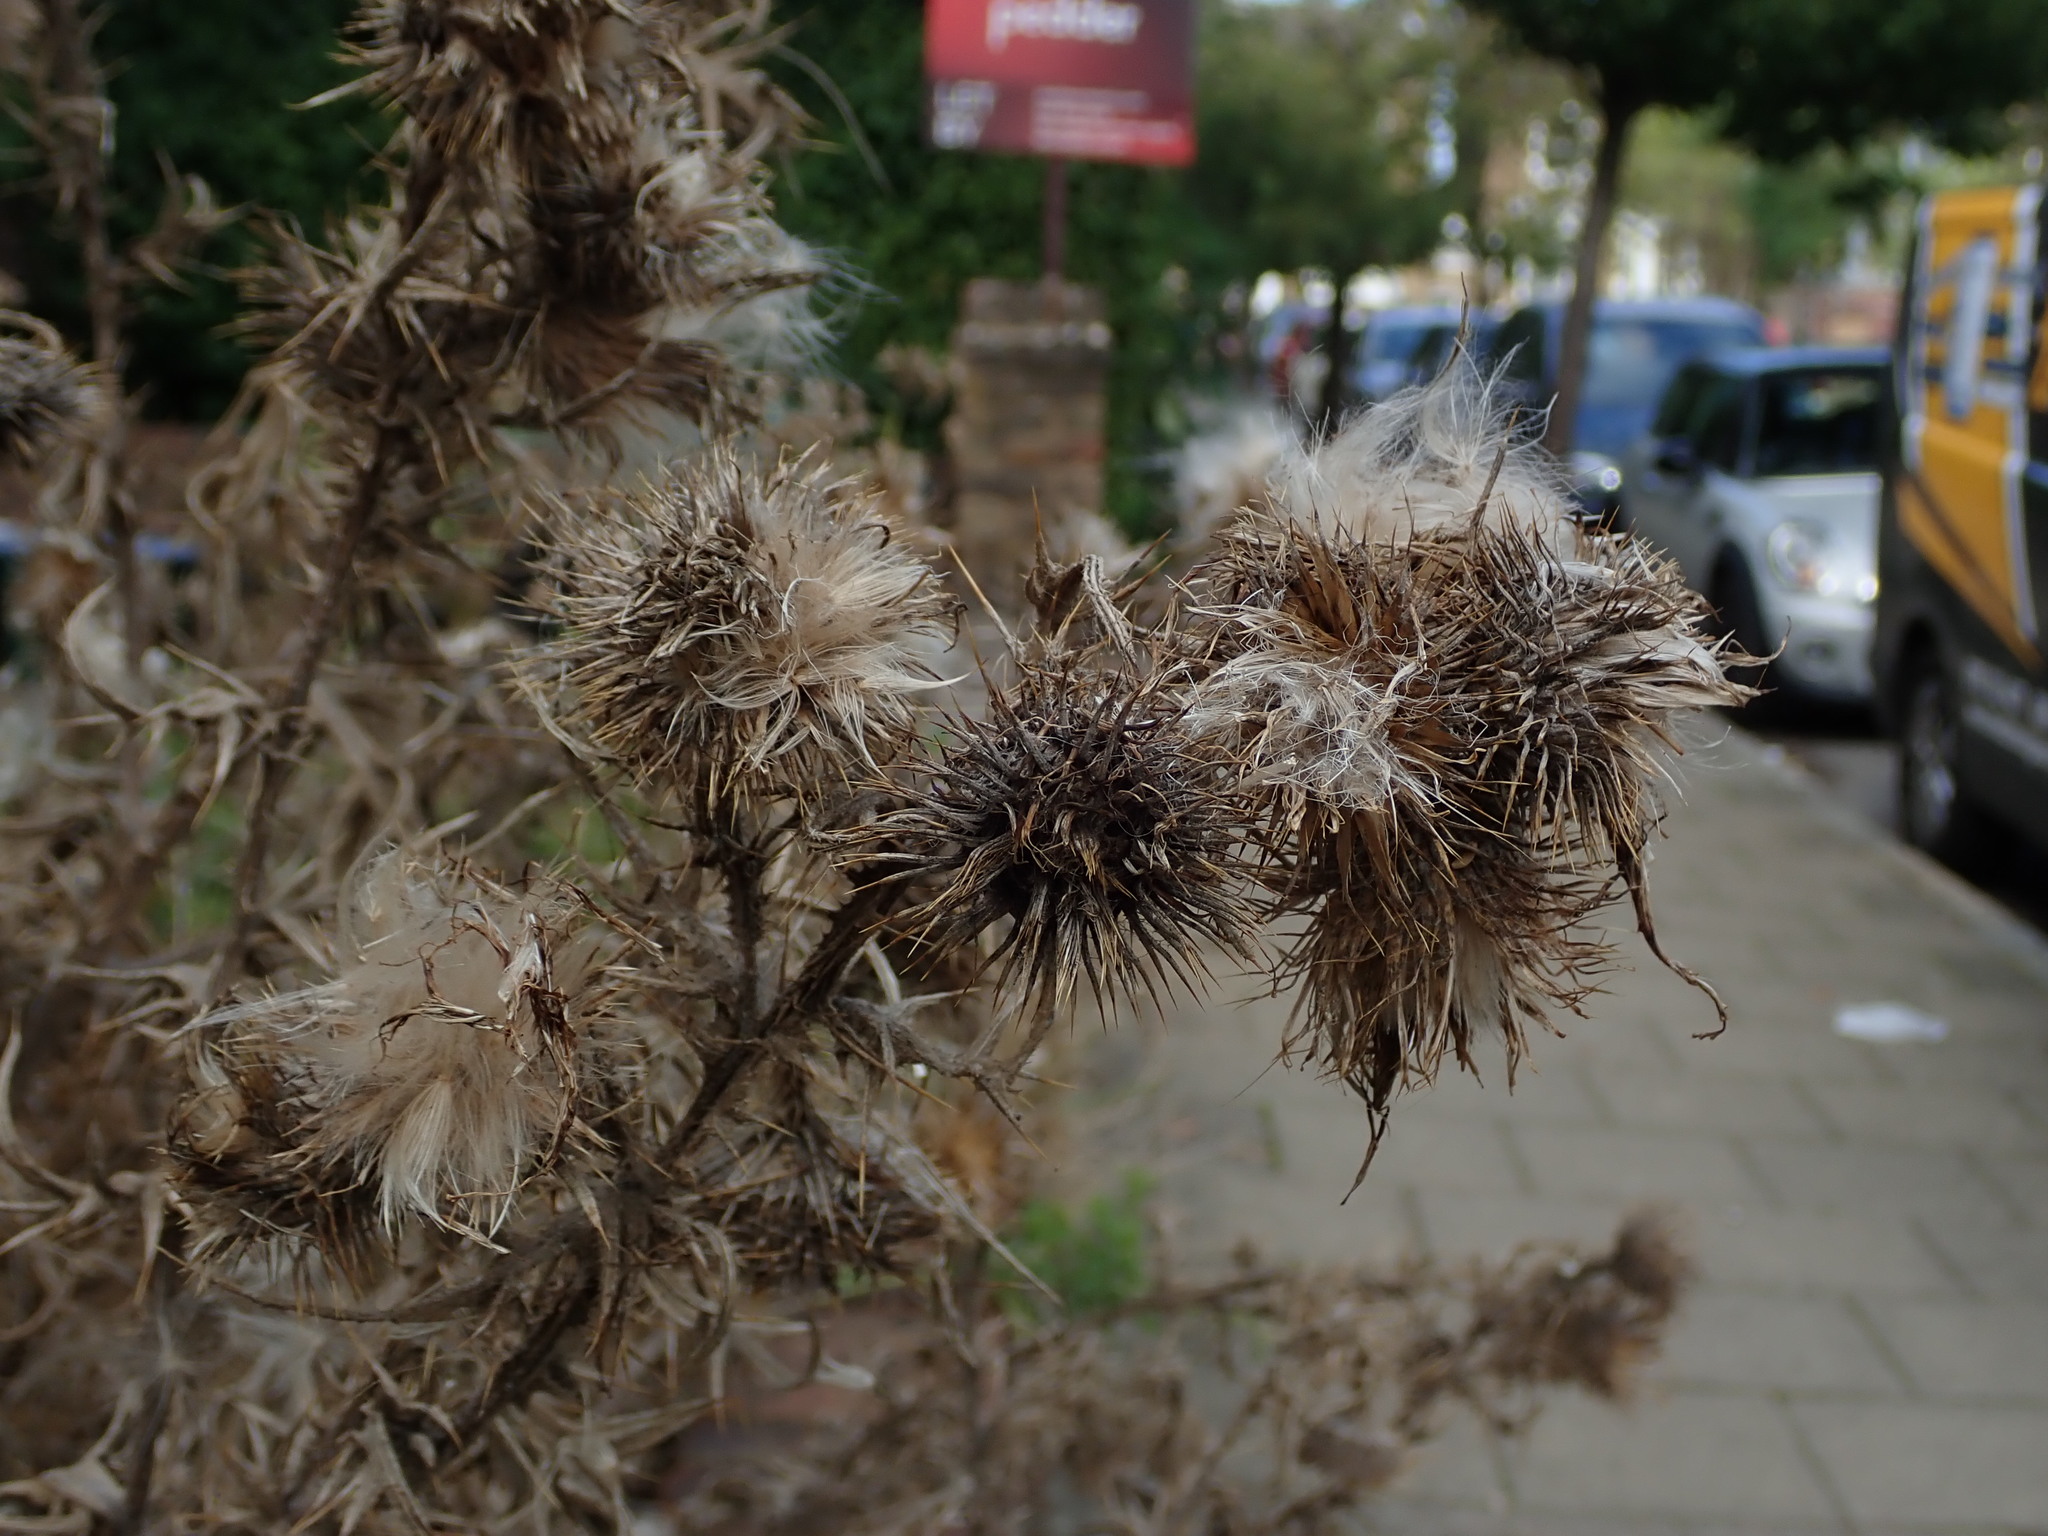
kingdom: Plantae
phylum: Tracheophyta
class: Magnoliopsida
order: Asterales
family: Asteraceae
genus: Cirsium
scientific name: Cirsium vulgare
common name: Bull thistle
